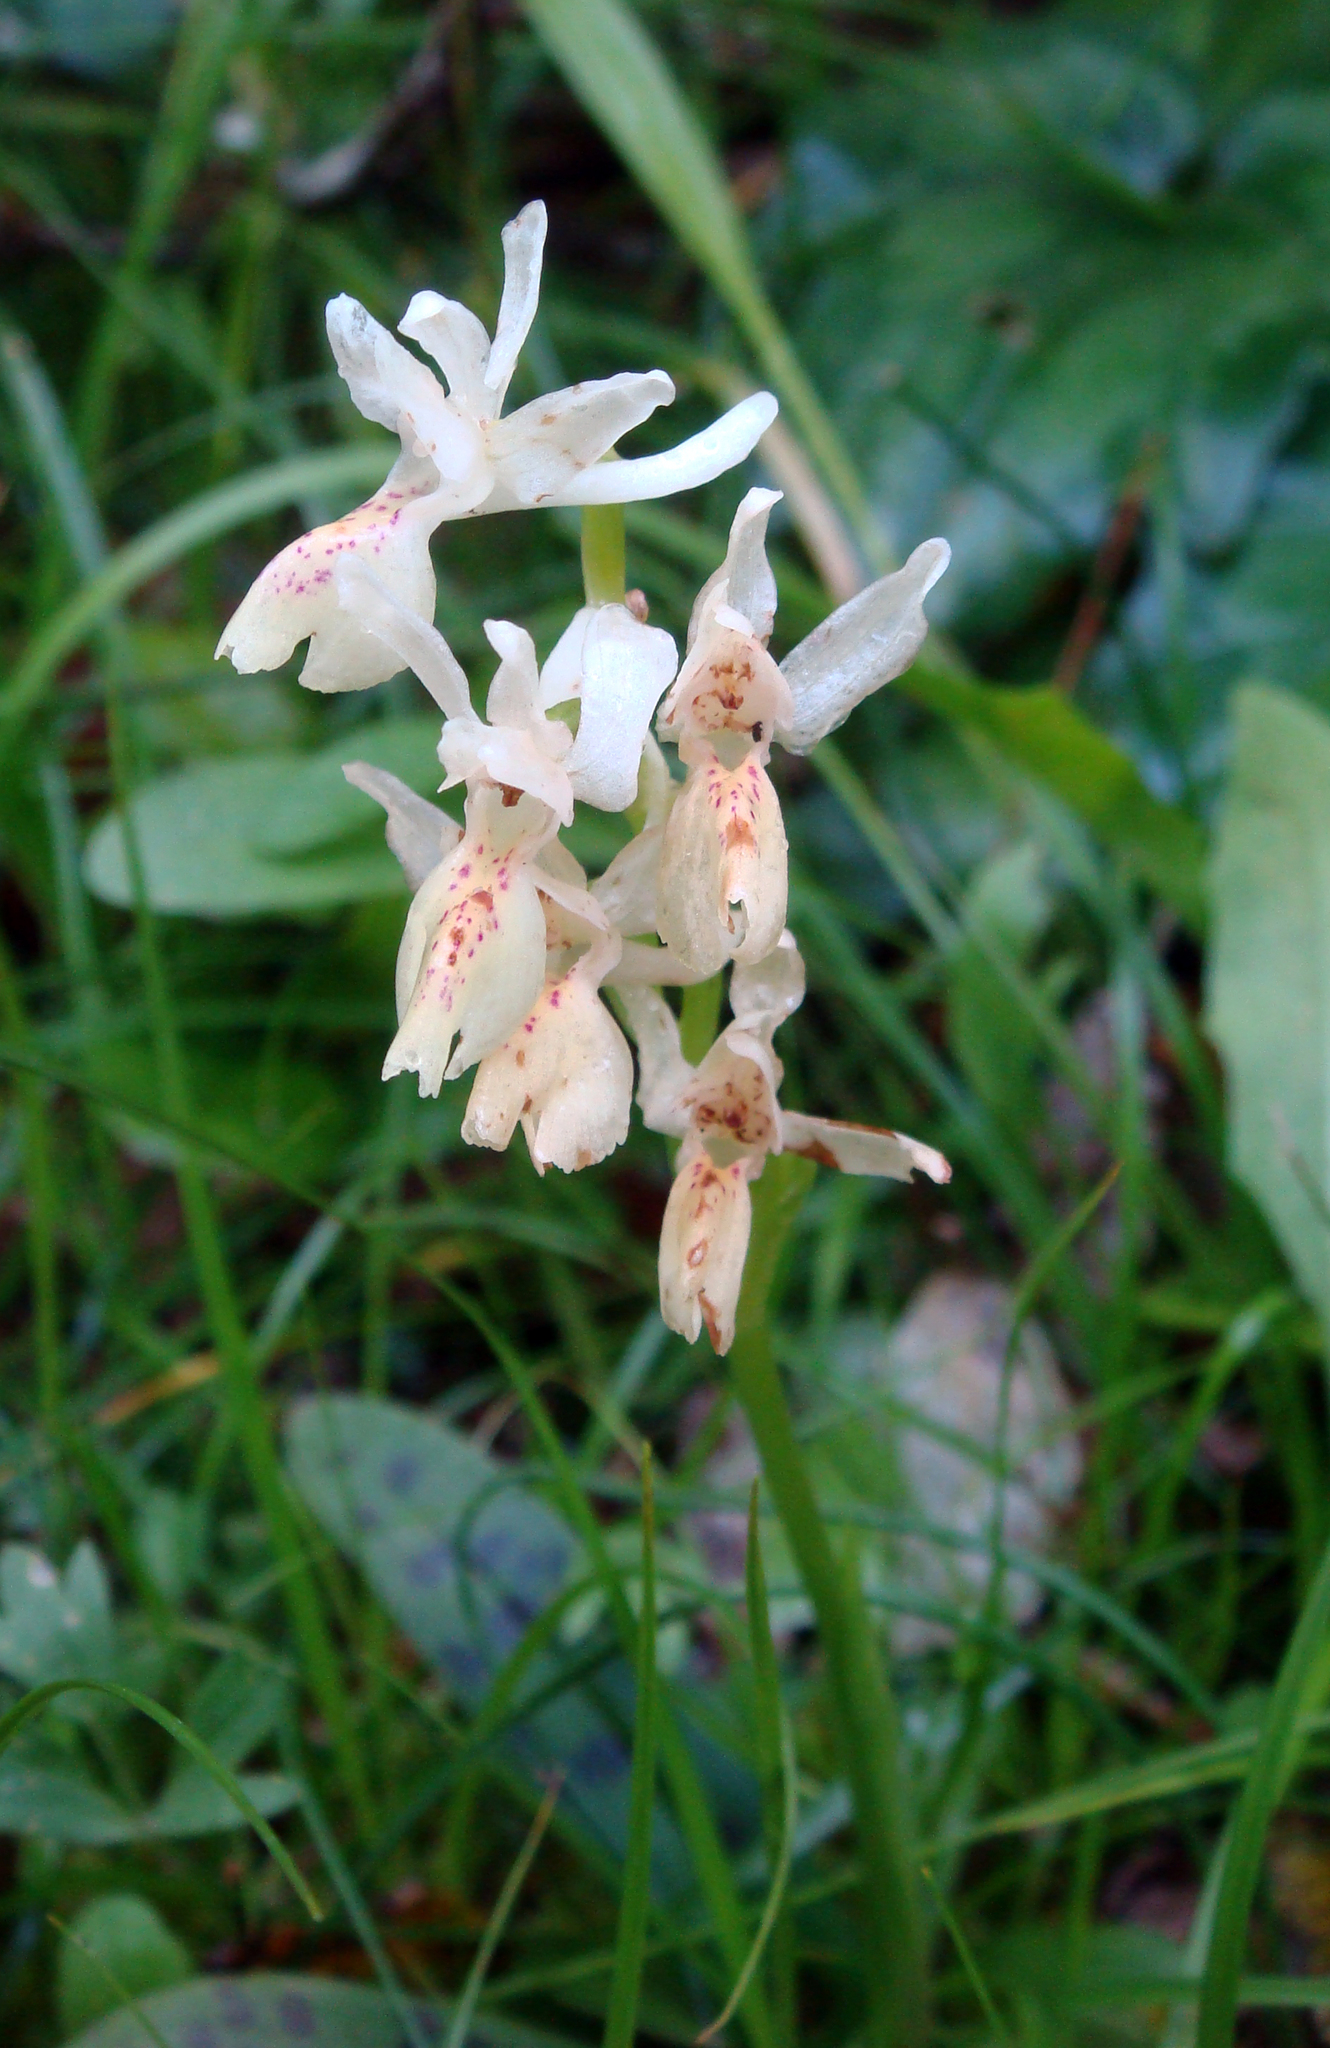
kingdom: Plantae
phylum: Tracheophyta
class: Liliopsida
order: Asparagales
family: Orchidaceae
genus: Orchis
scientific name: Orchis provincialis
